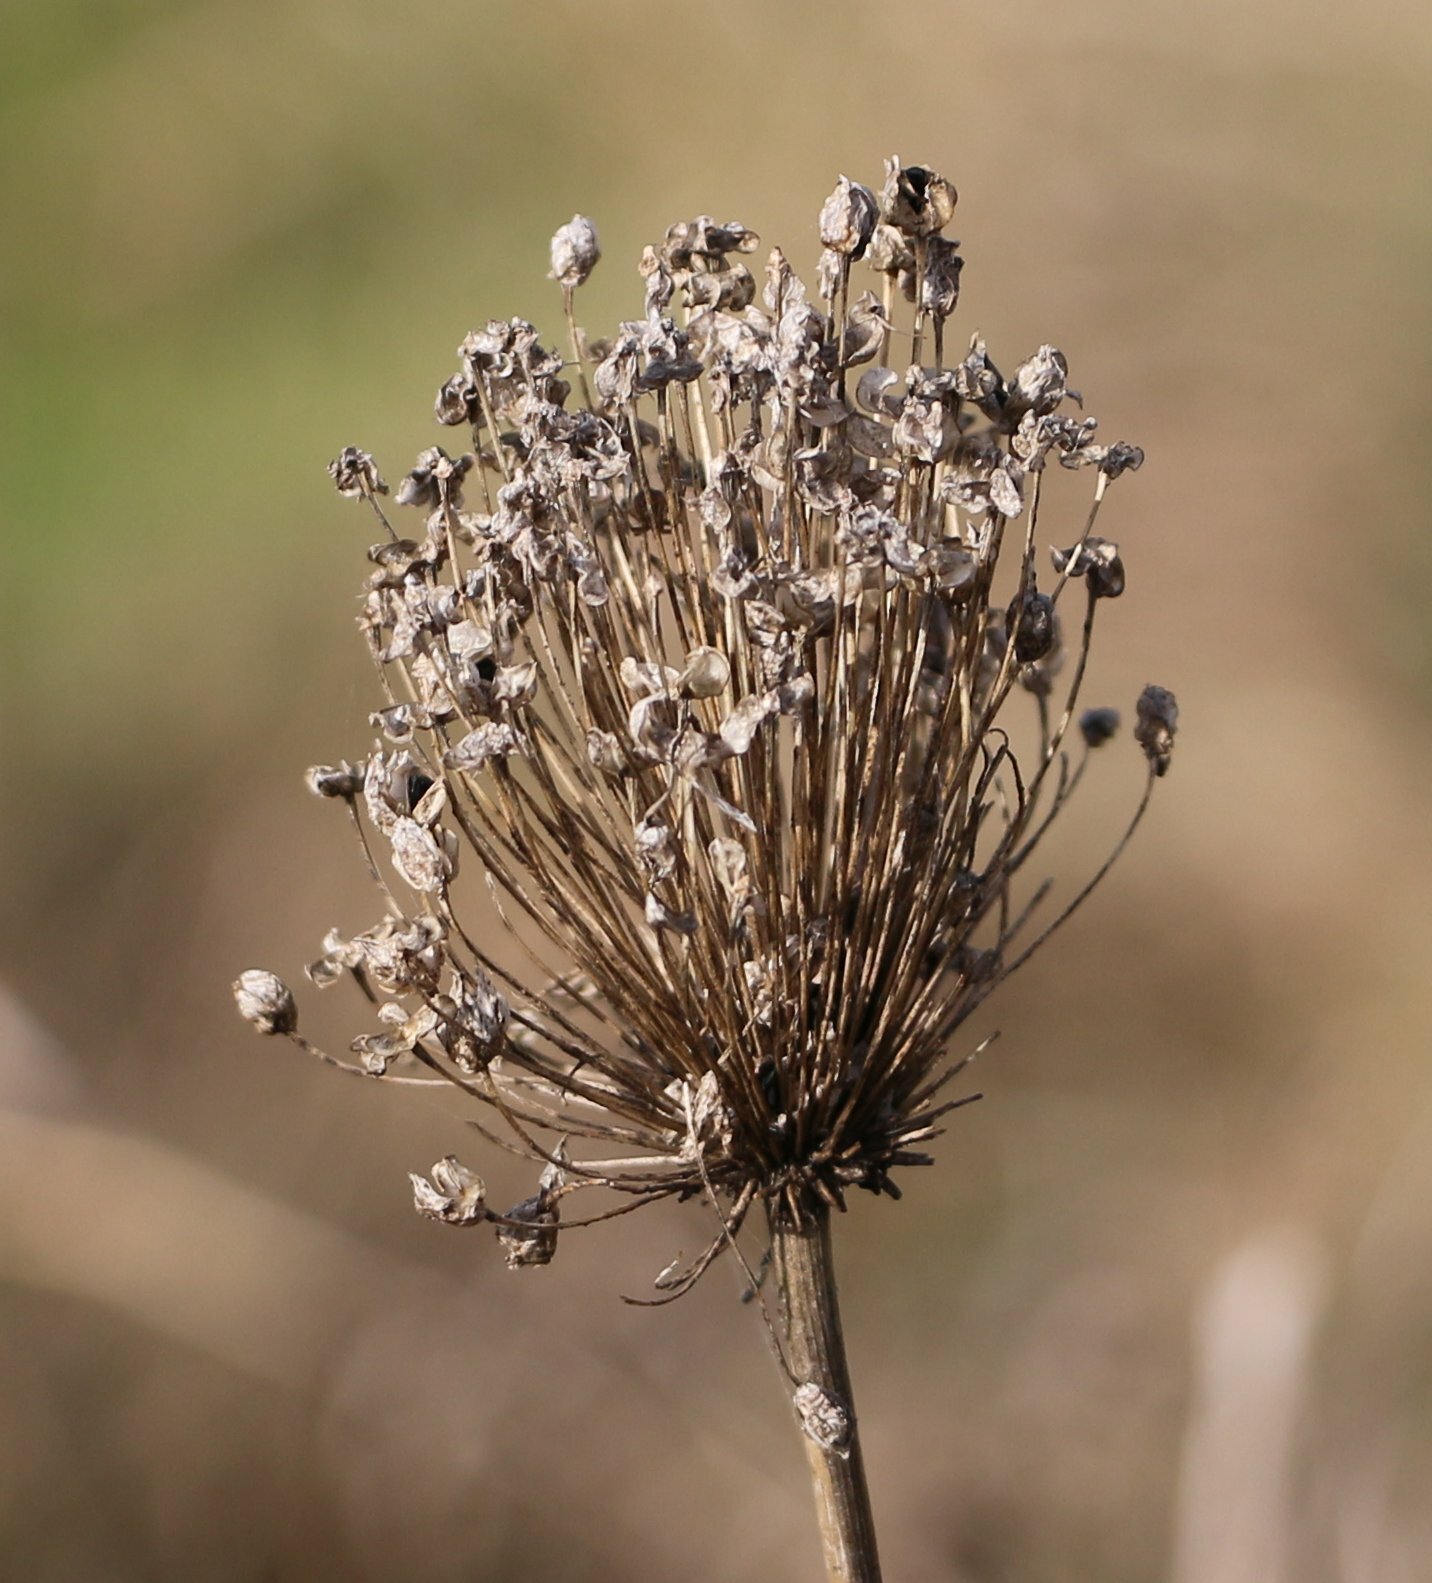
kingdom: Plantae
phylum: Tracheophyta
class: Liliopsida
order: Asparagales
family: Amaryllidaceae
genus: Allium
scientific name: Allium rotundum
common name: Sand leek
